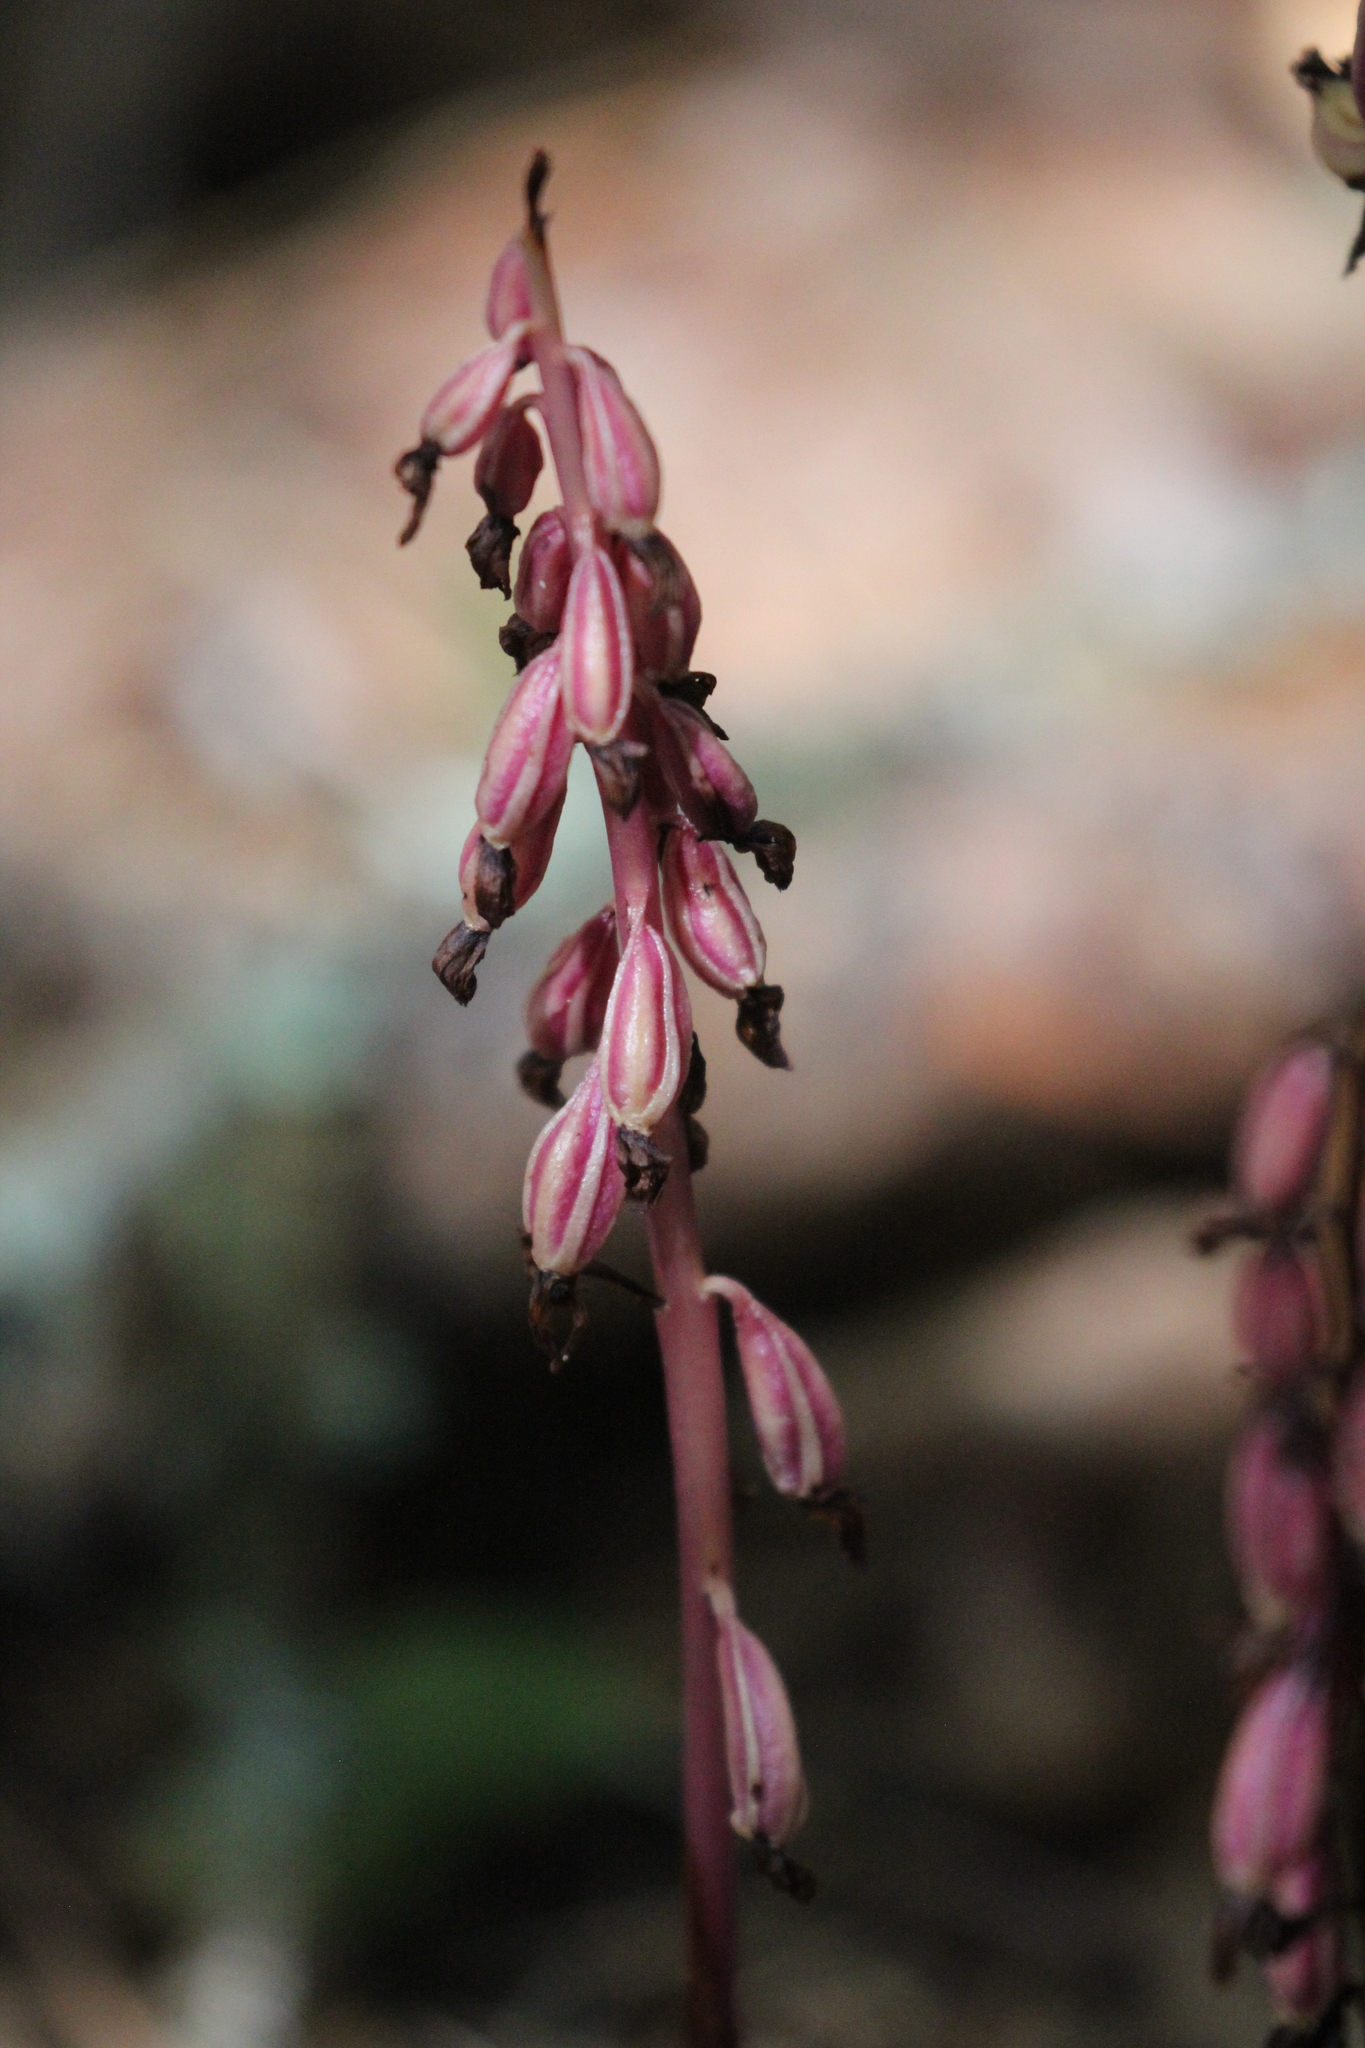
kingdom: Plantae
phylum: Tracheophyta
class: Liliopsida
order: Asparagales
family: Orchidaceae
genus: Corallorhiza
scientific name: Corallorhiza maculata
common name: Spotted coralroot
